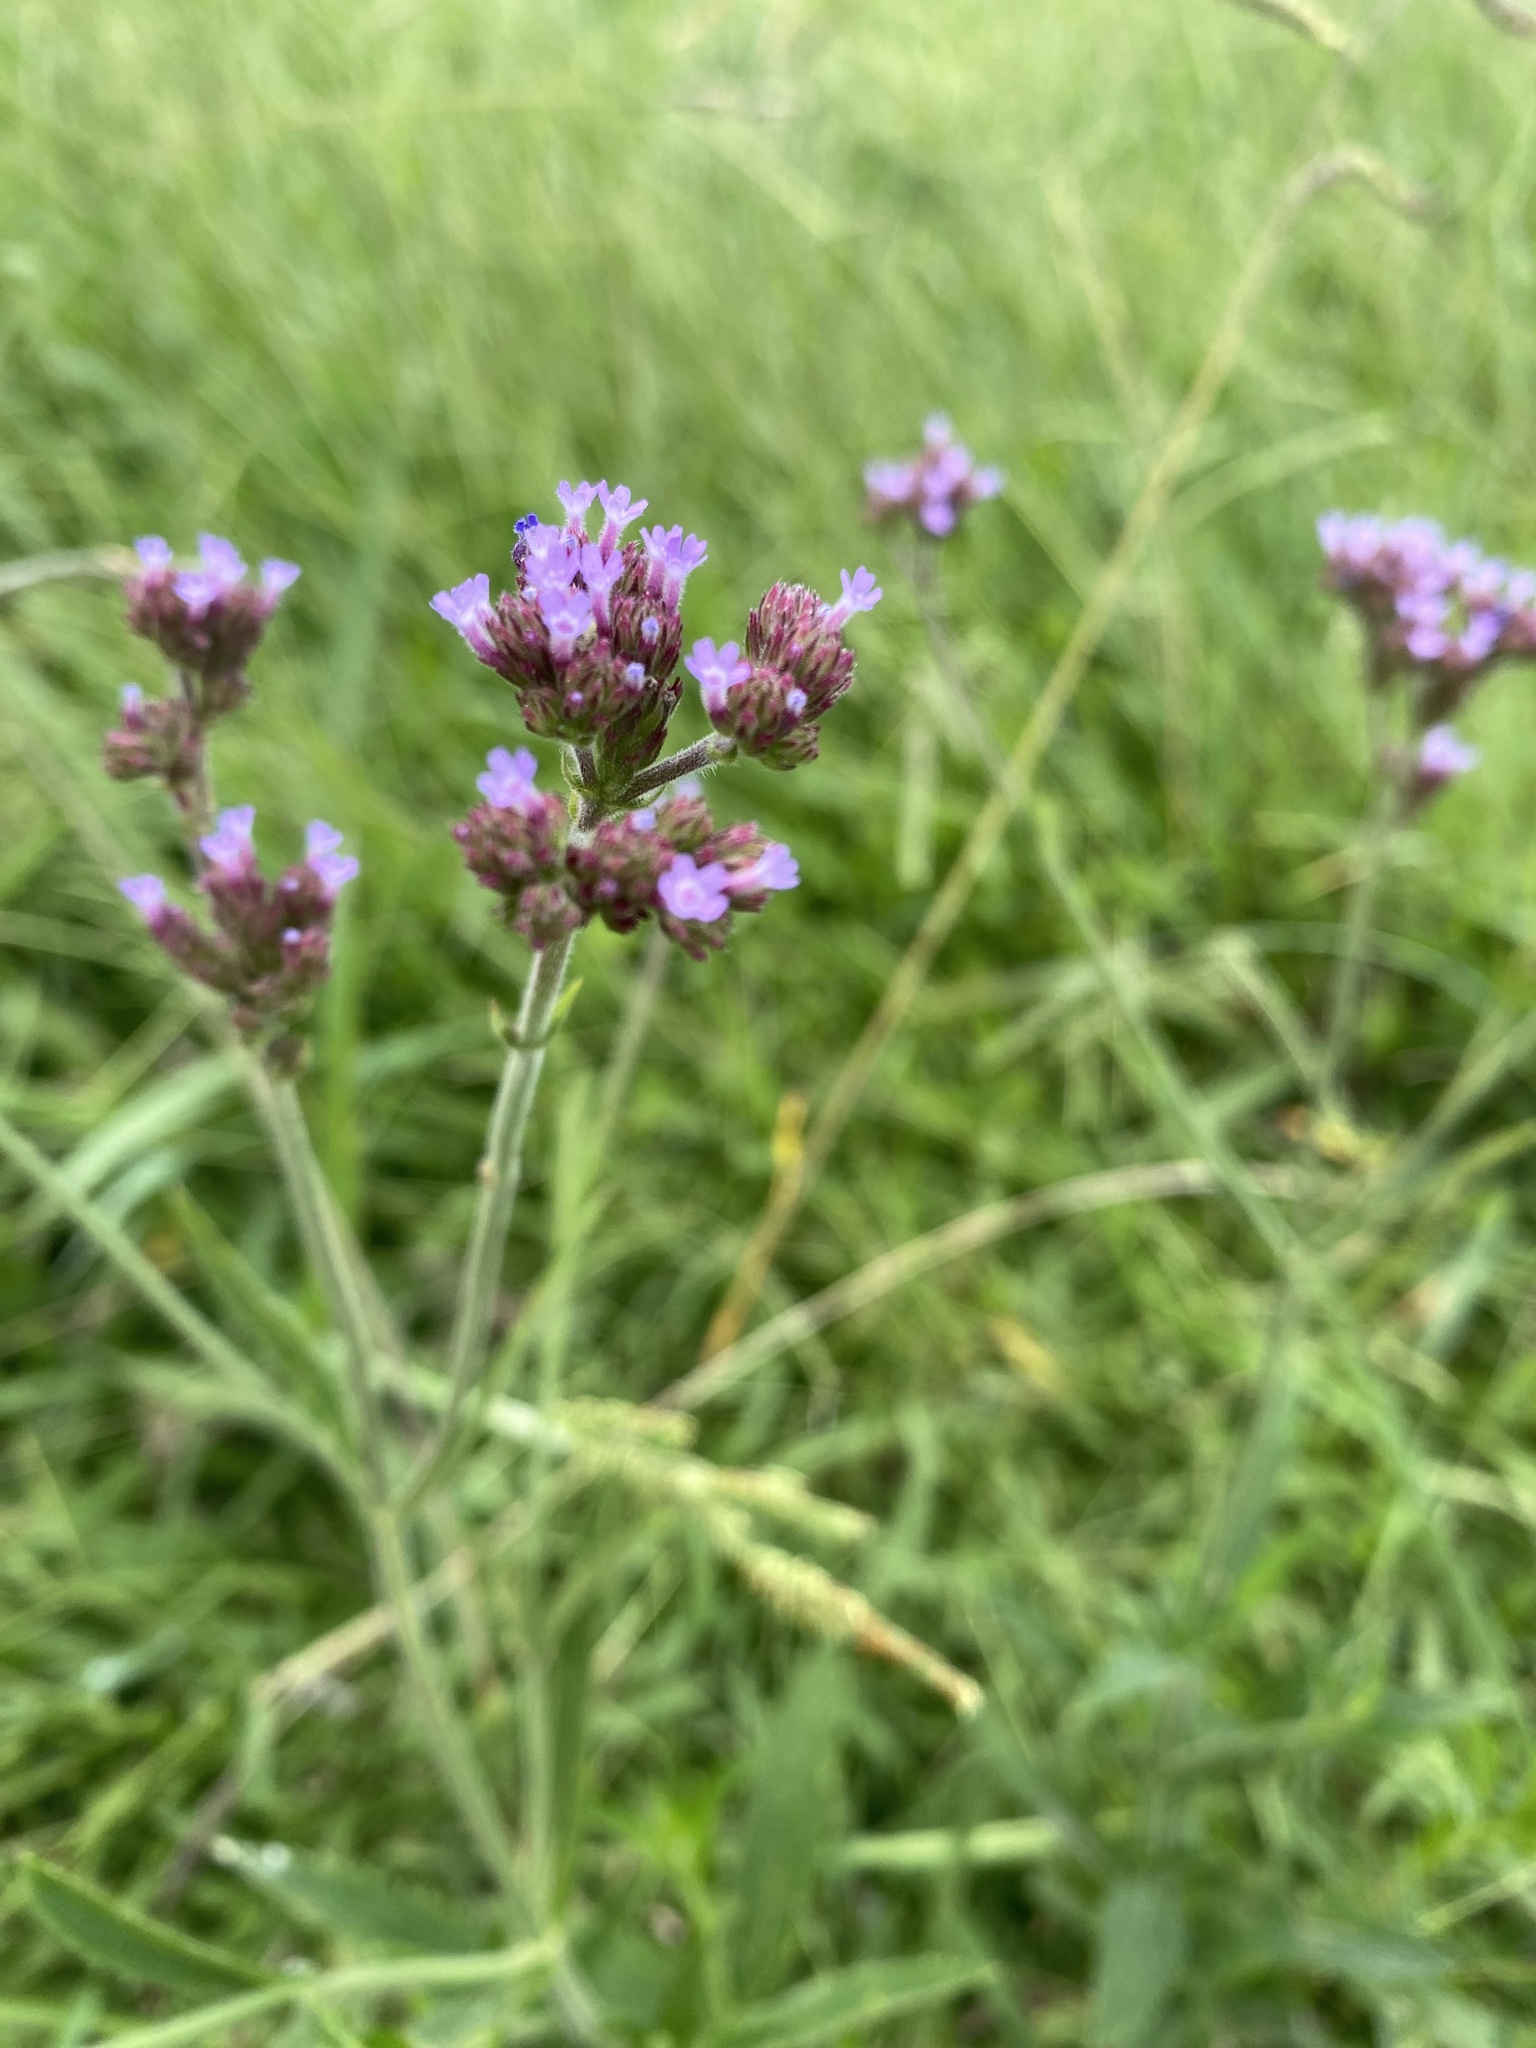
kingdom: Plantae
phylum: Tracheophyta
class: Magnoliopsida
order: Lamiales
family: Verbenaceae
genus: Verbena
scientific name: Verbena bonariensis
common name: Purpletop vervain
